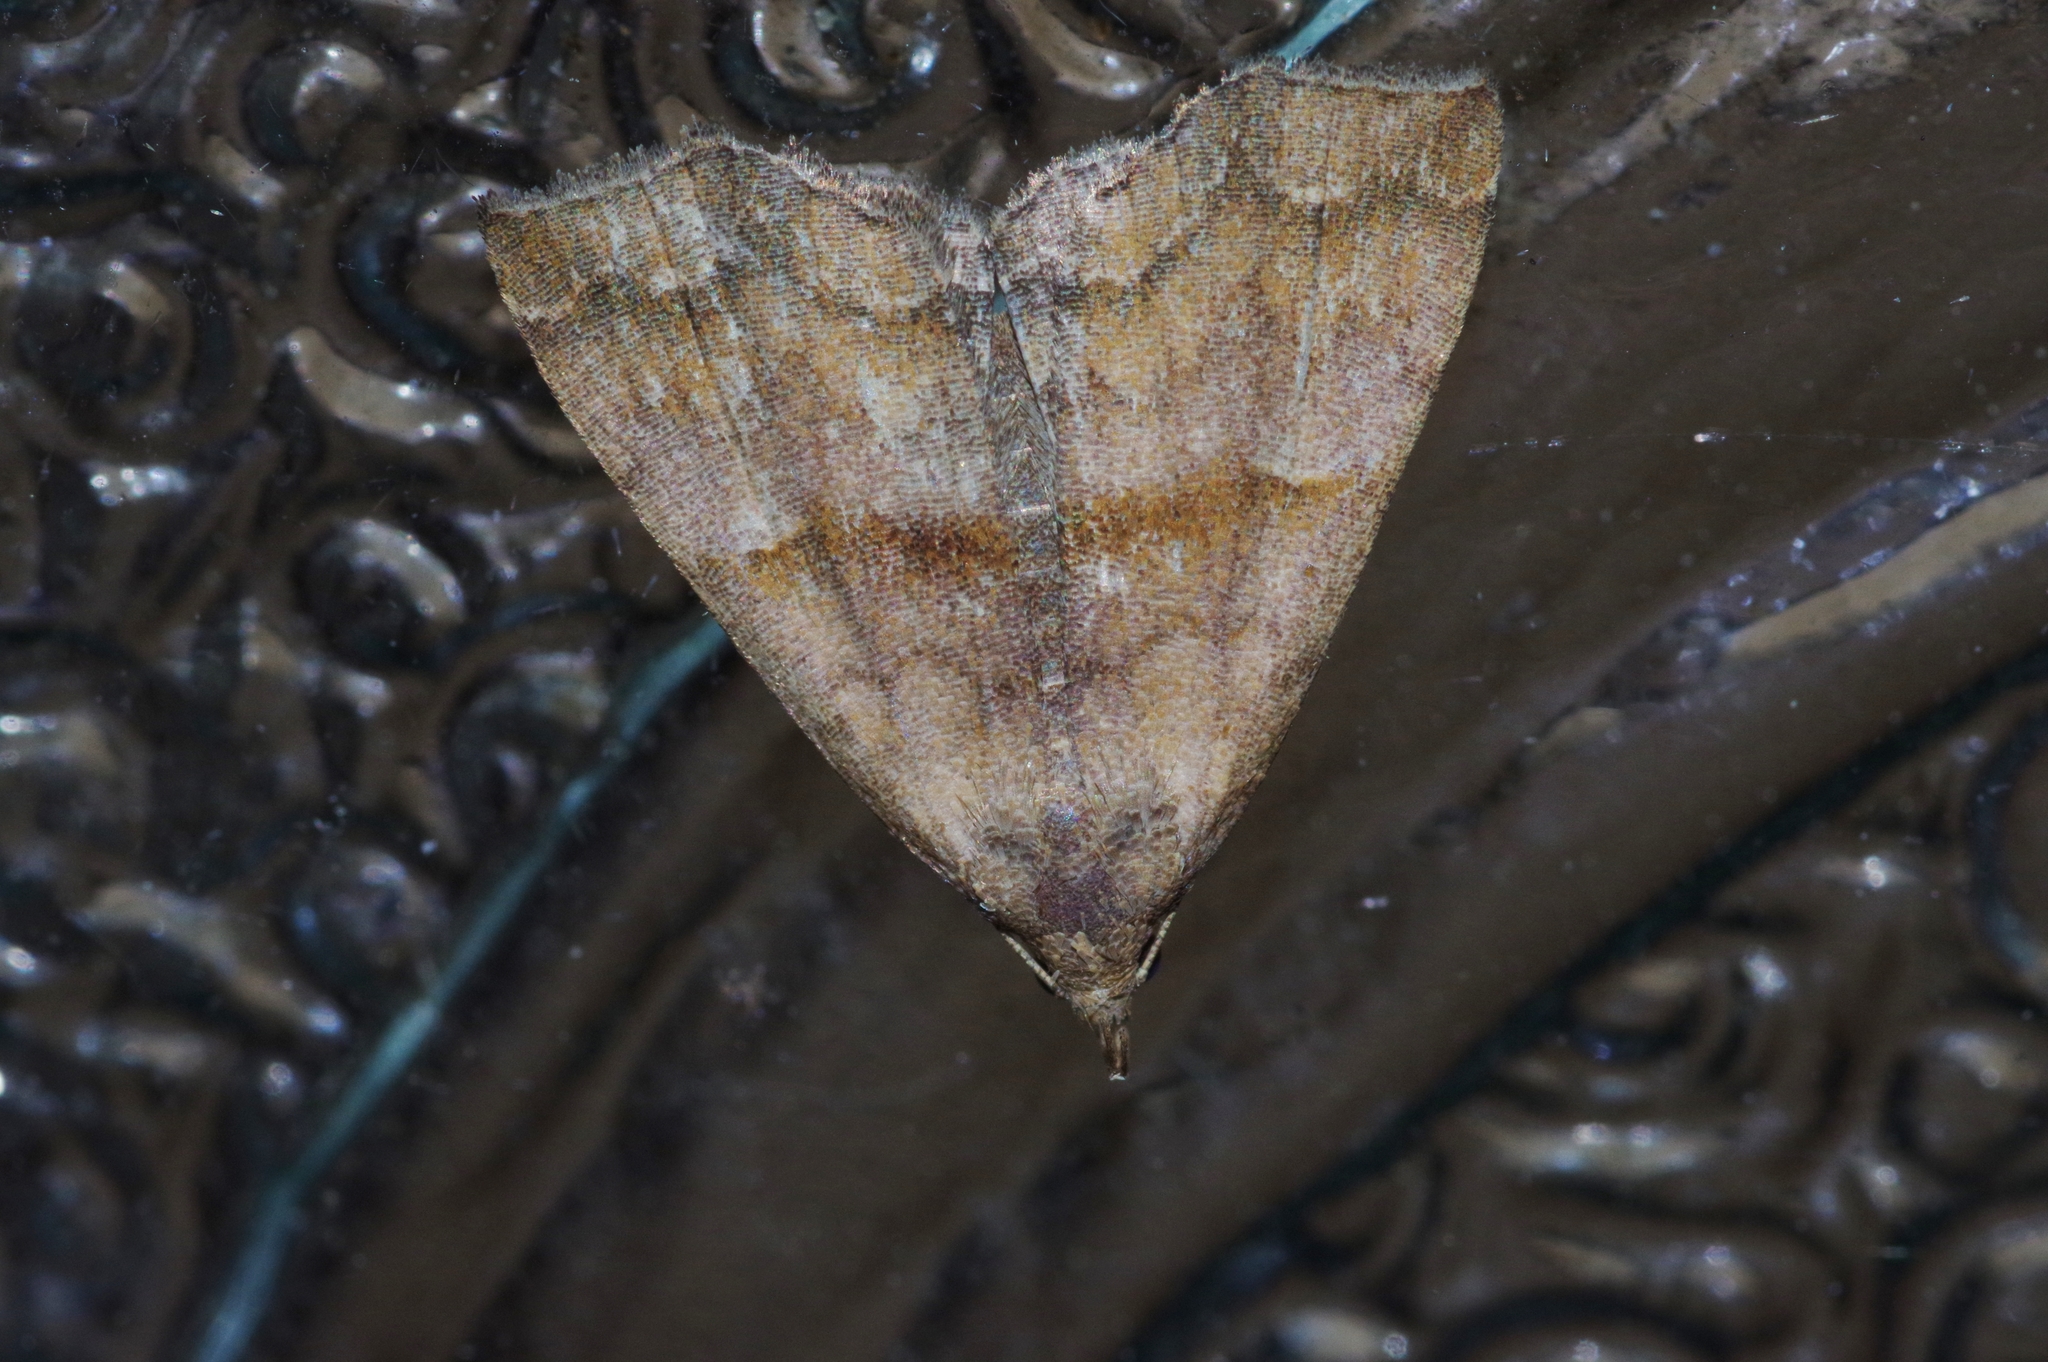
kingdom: Animalia
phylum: Arthropoda
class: Insecta
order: Lepidoptera
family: Erebidae
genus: Polypogon
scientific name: Polypogon Hipoepa fractalis
